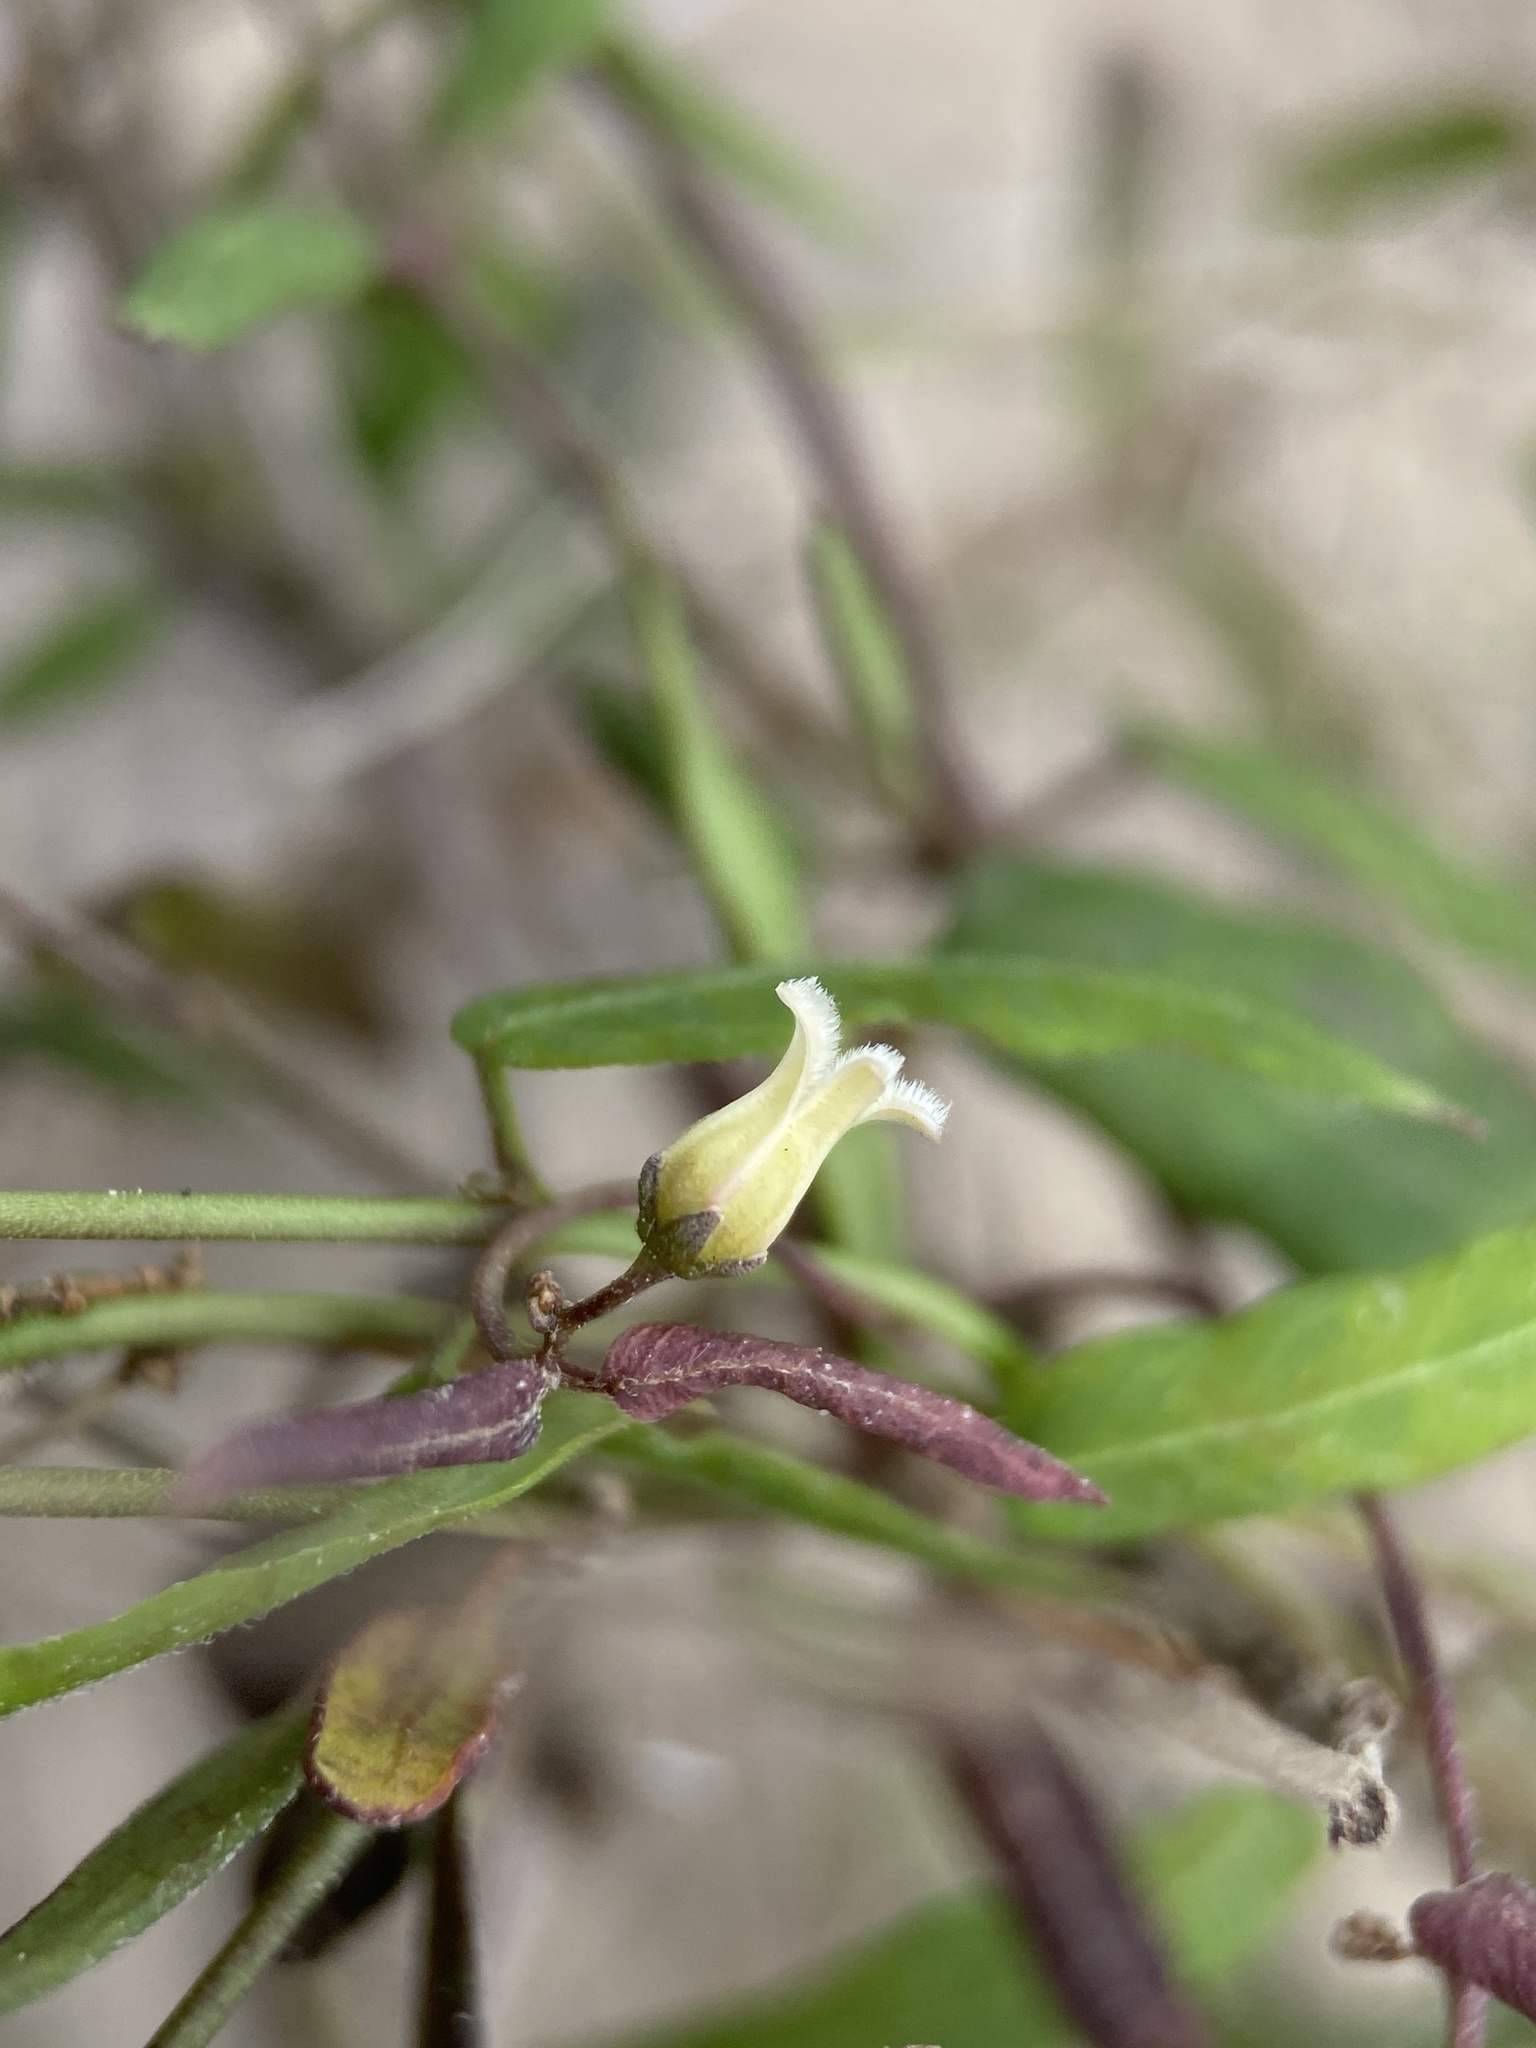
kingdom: Plantae
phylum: Tracheophyta
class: Magnoliopsida
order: Gentianales
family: Apocynaceae
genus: Metastelma
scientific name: Metastelma barbigerum
